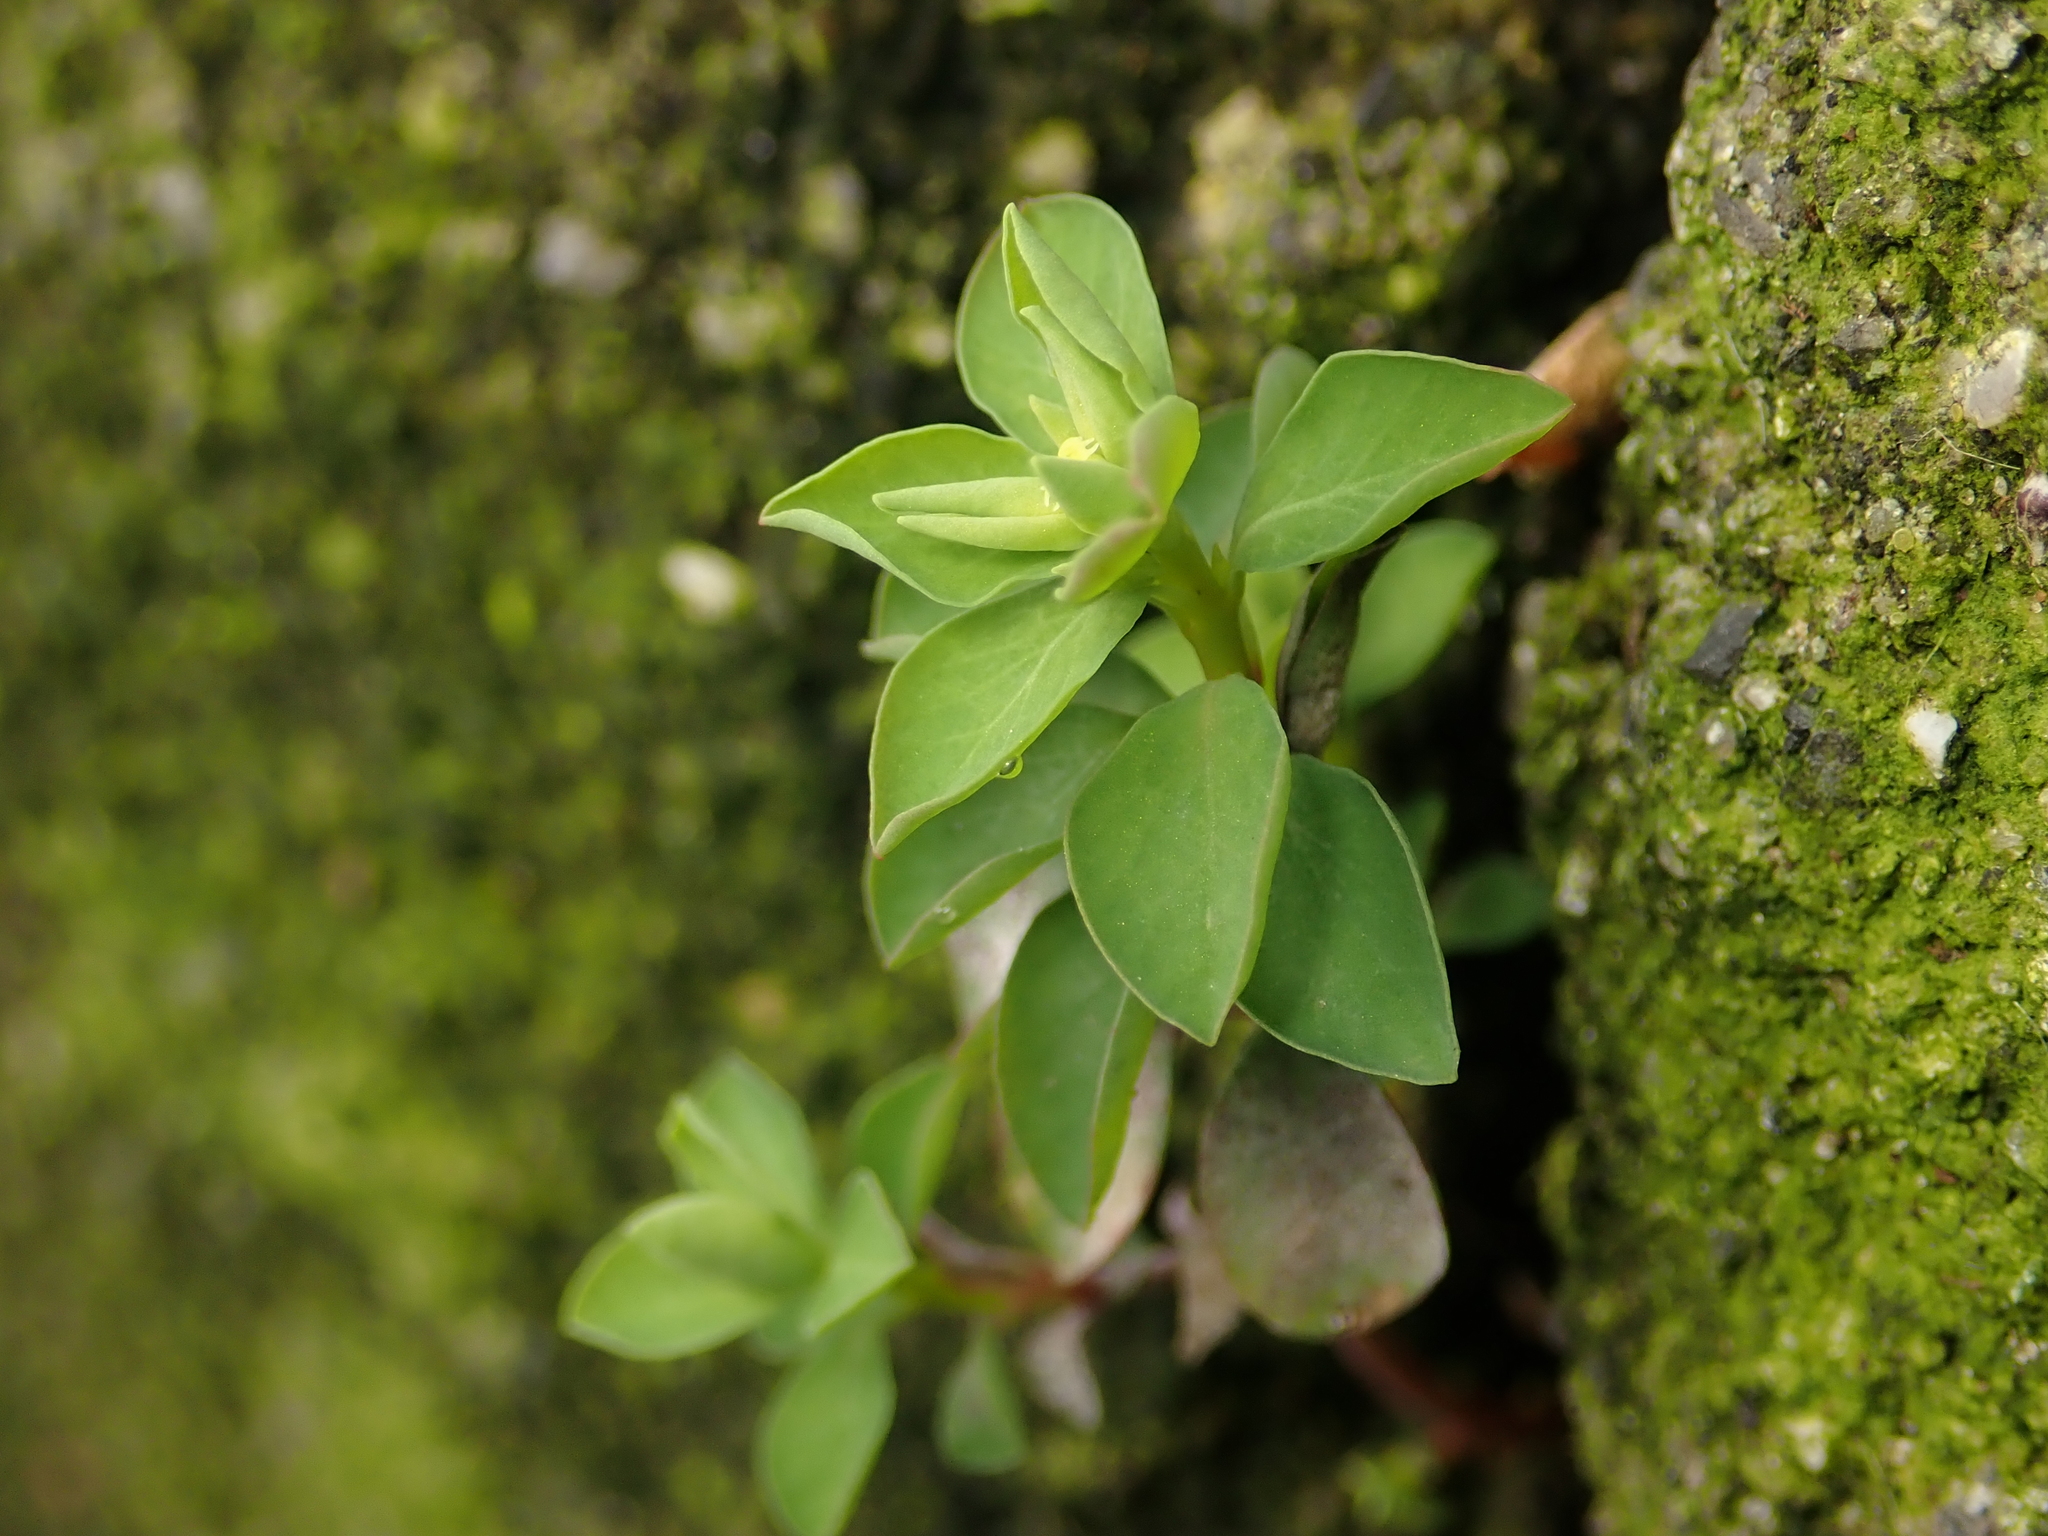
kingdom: Plantae
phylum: Tracheophyta
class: Magnoliopsida
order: Malpighiales
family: Euphorbiaceae
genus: Euphorbia
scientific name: Euphorbia peplus
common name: Petty spurge
